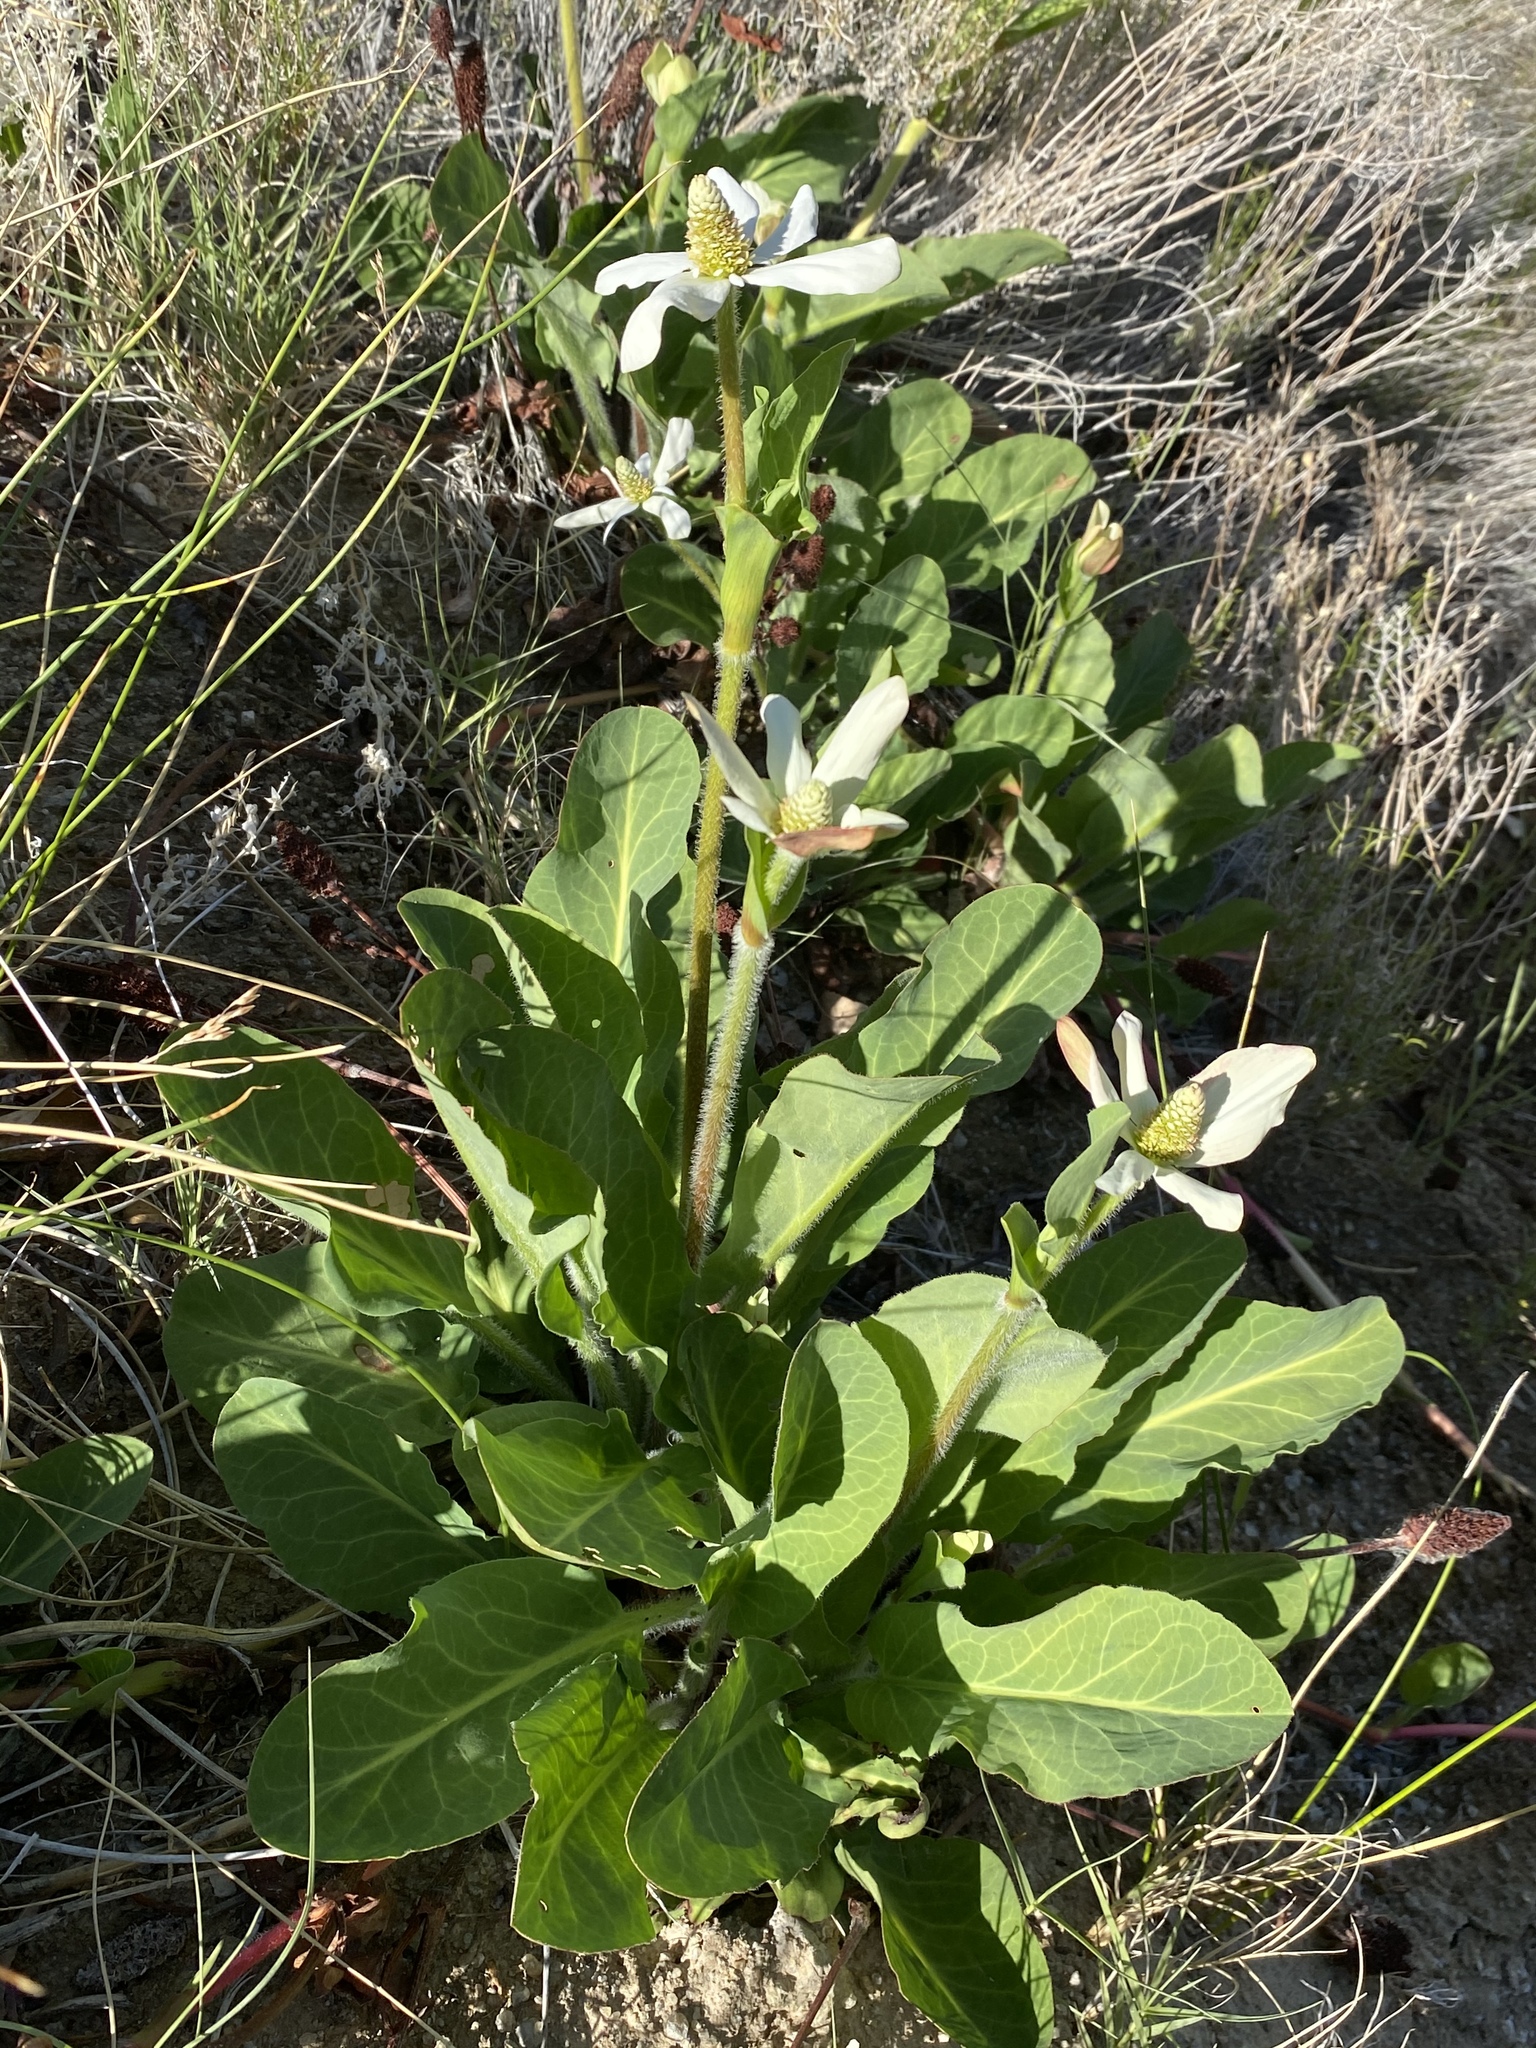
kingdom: Plantae
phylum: Tracheophyta
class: Magnoliopsida
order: Piperales
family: Saururaceae
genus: Anemopsis
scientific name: Anemopsis californica
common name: Apache-beads
